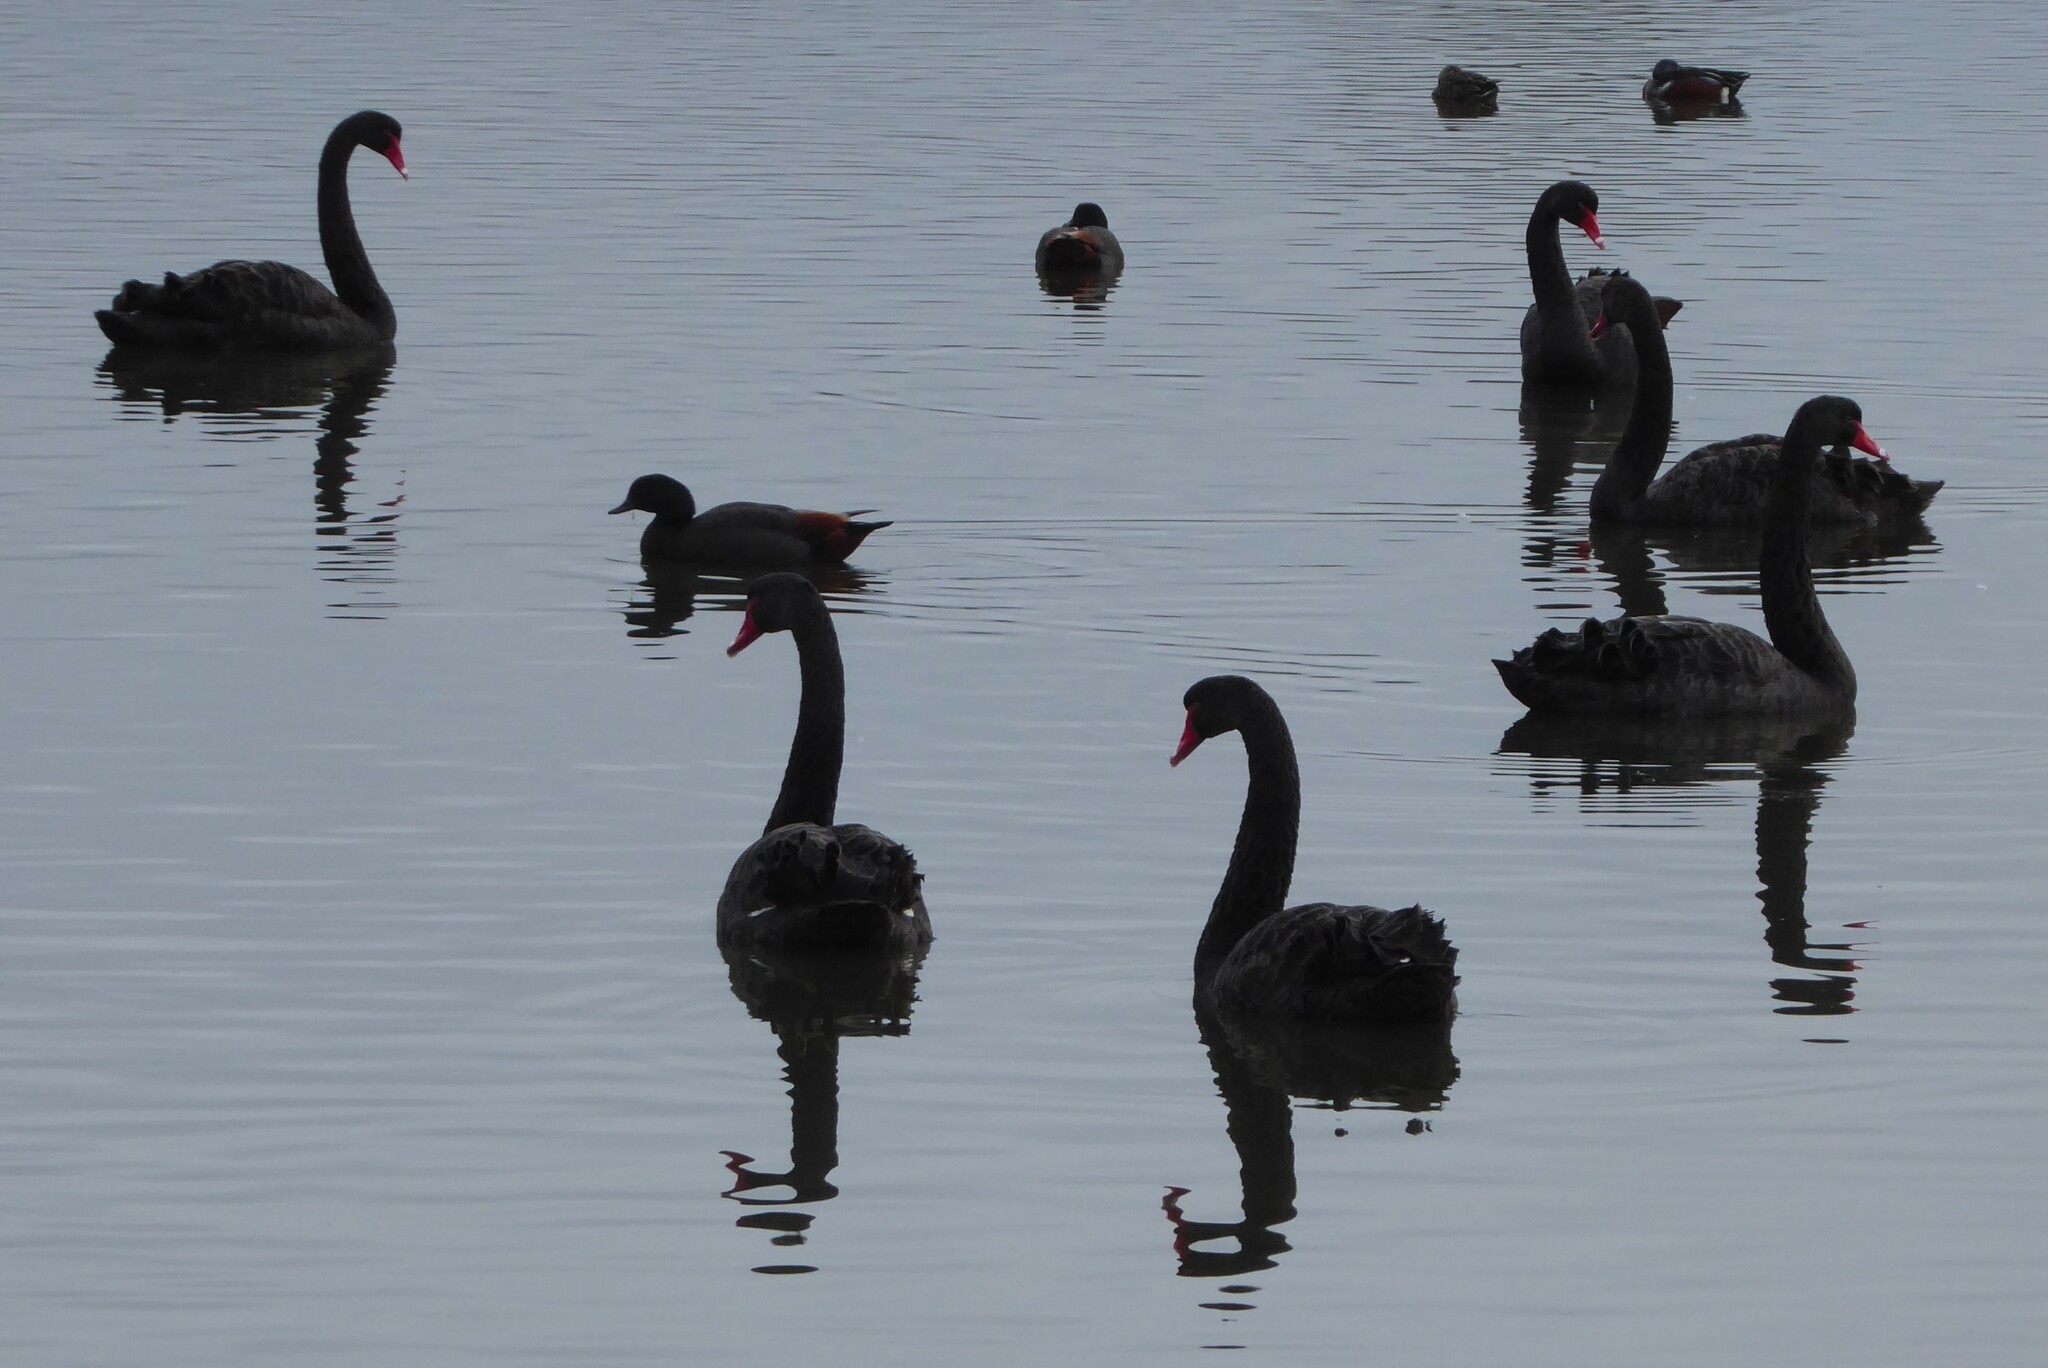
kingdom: Animalia
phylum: Chordata
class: Aves
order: Anseriformes
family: Anatidae
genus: Cygnus
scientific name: Cygnus atratus
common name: Black swan
